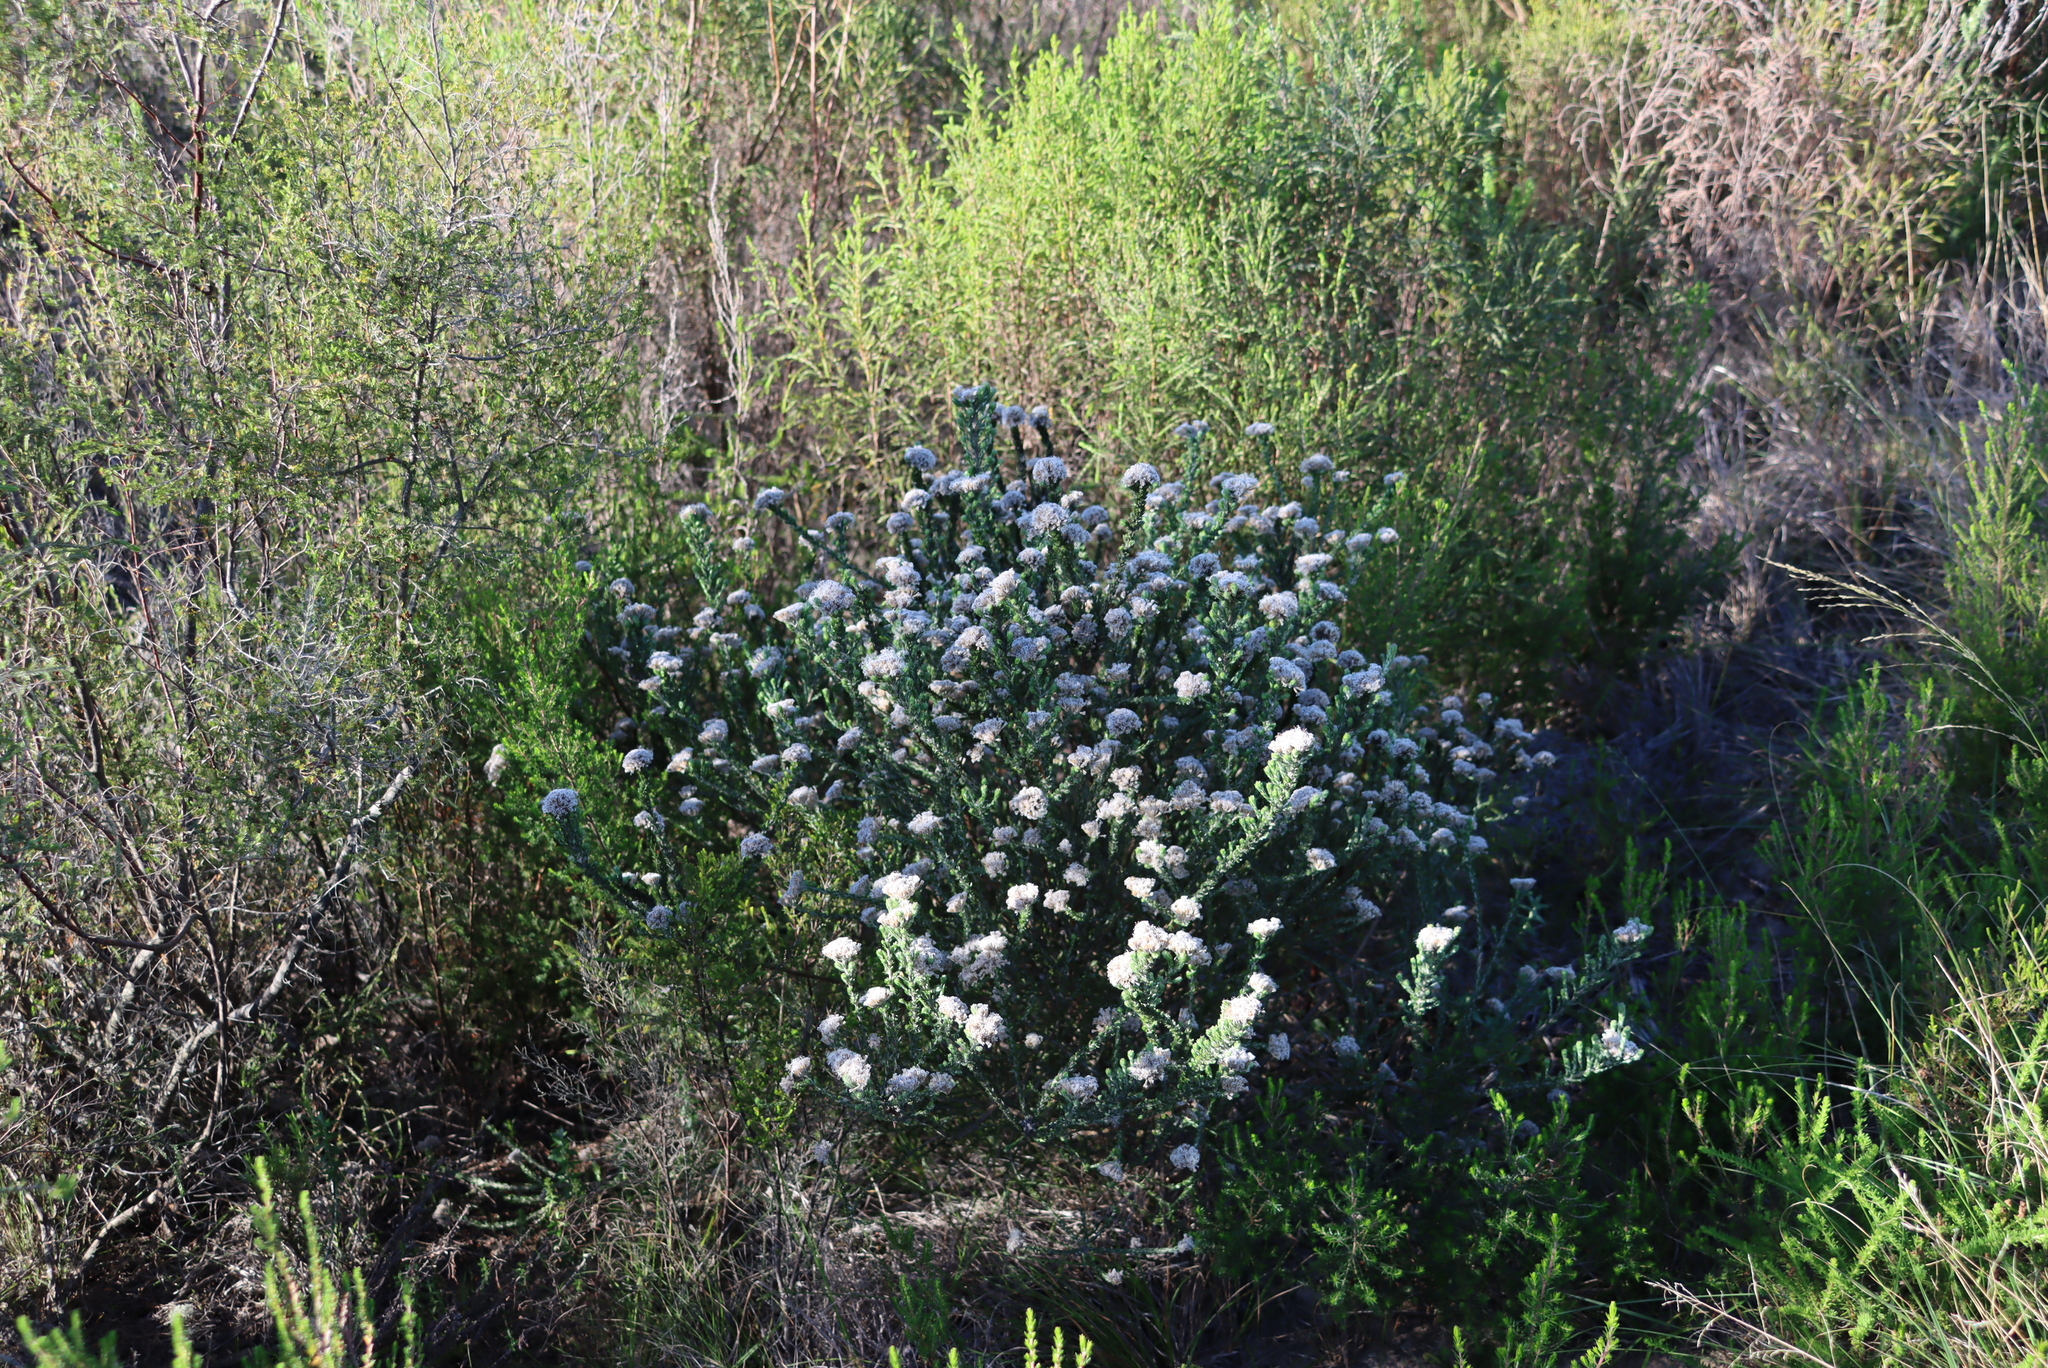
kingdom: Plantae
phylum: Tracheophyta
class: Magnoliopsida
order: Asterales
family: Asteraceae
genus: Metalasia
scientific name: Metalasia pungens
